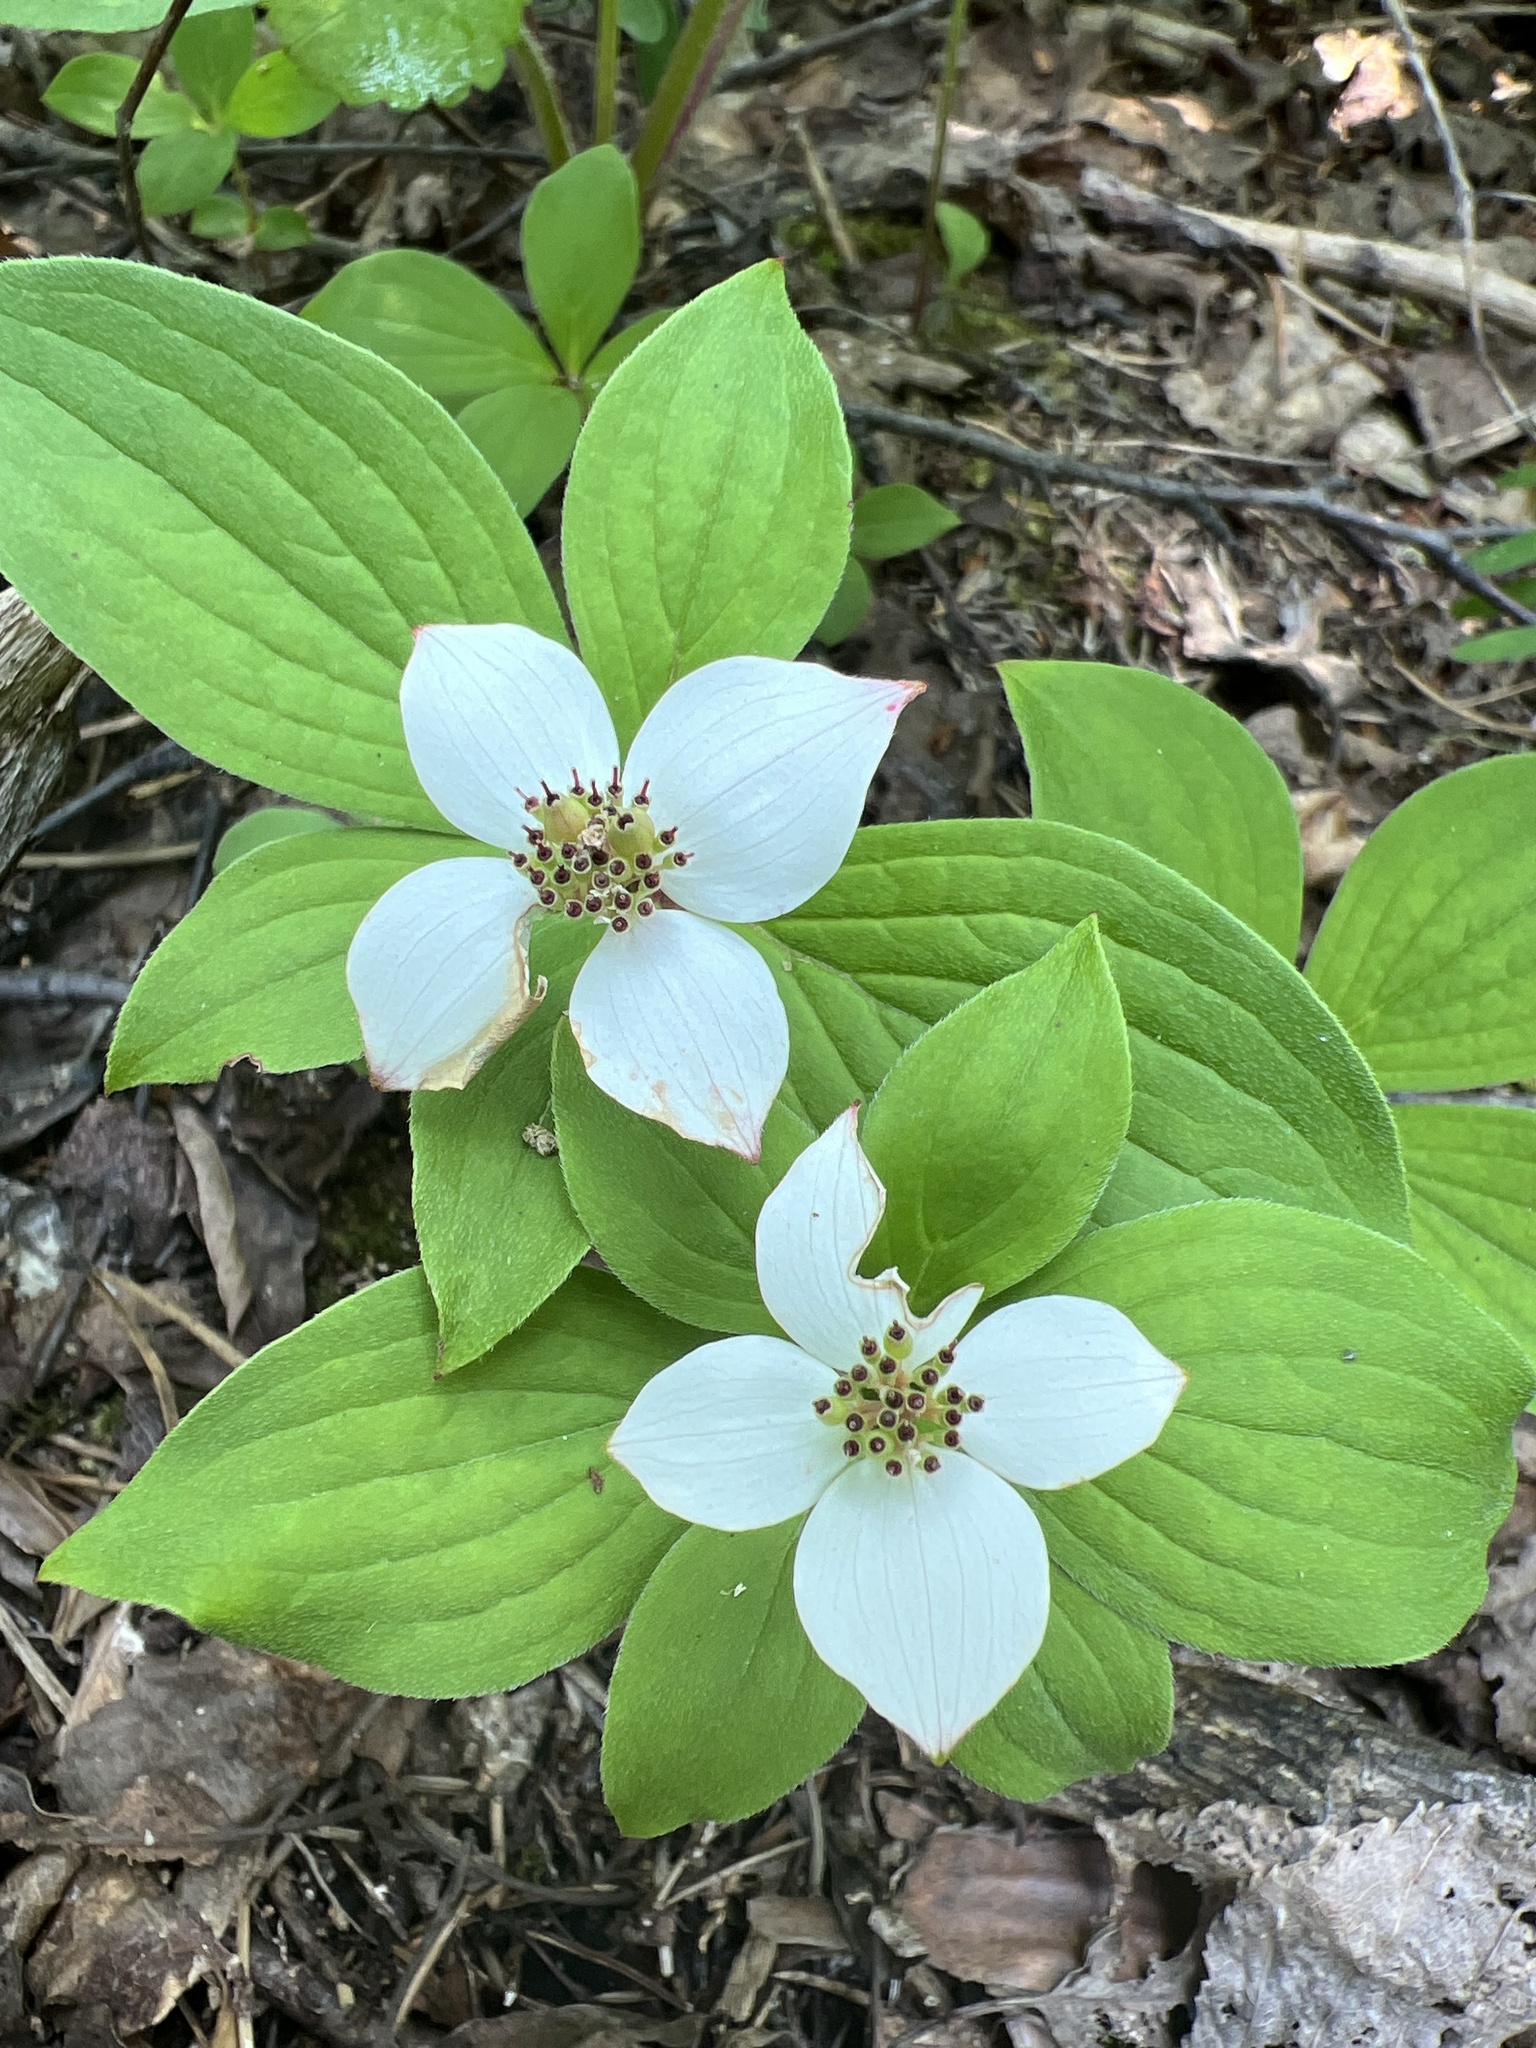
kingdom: Plantae
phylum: Tracheophyta
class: Magnoliopsida
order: Cornales
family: Cornaceae
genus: Cornus
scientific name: Cornus canadensis
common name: Creeping dogwood
